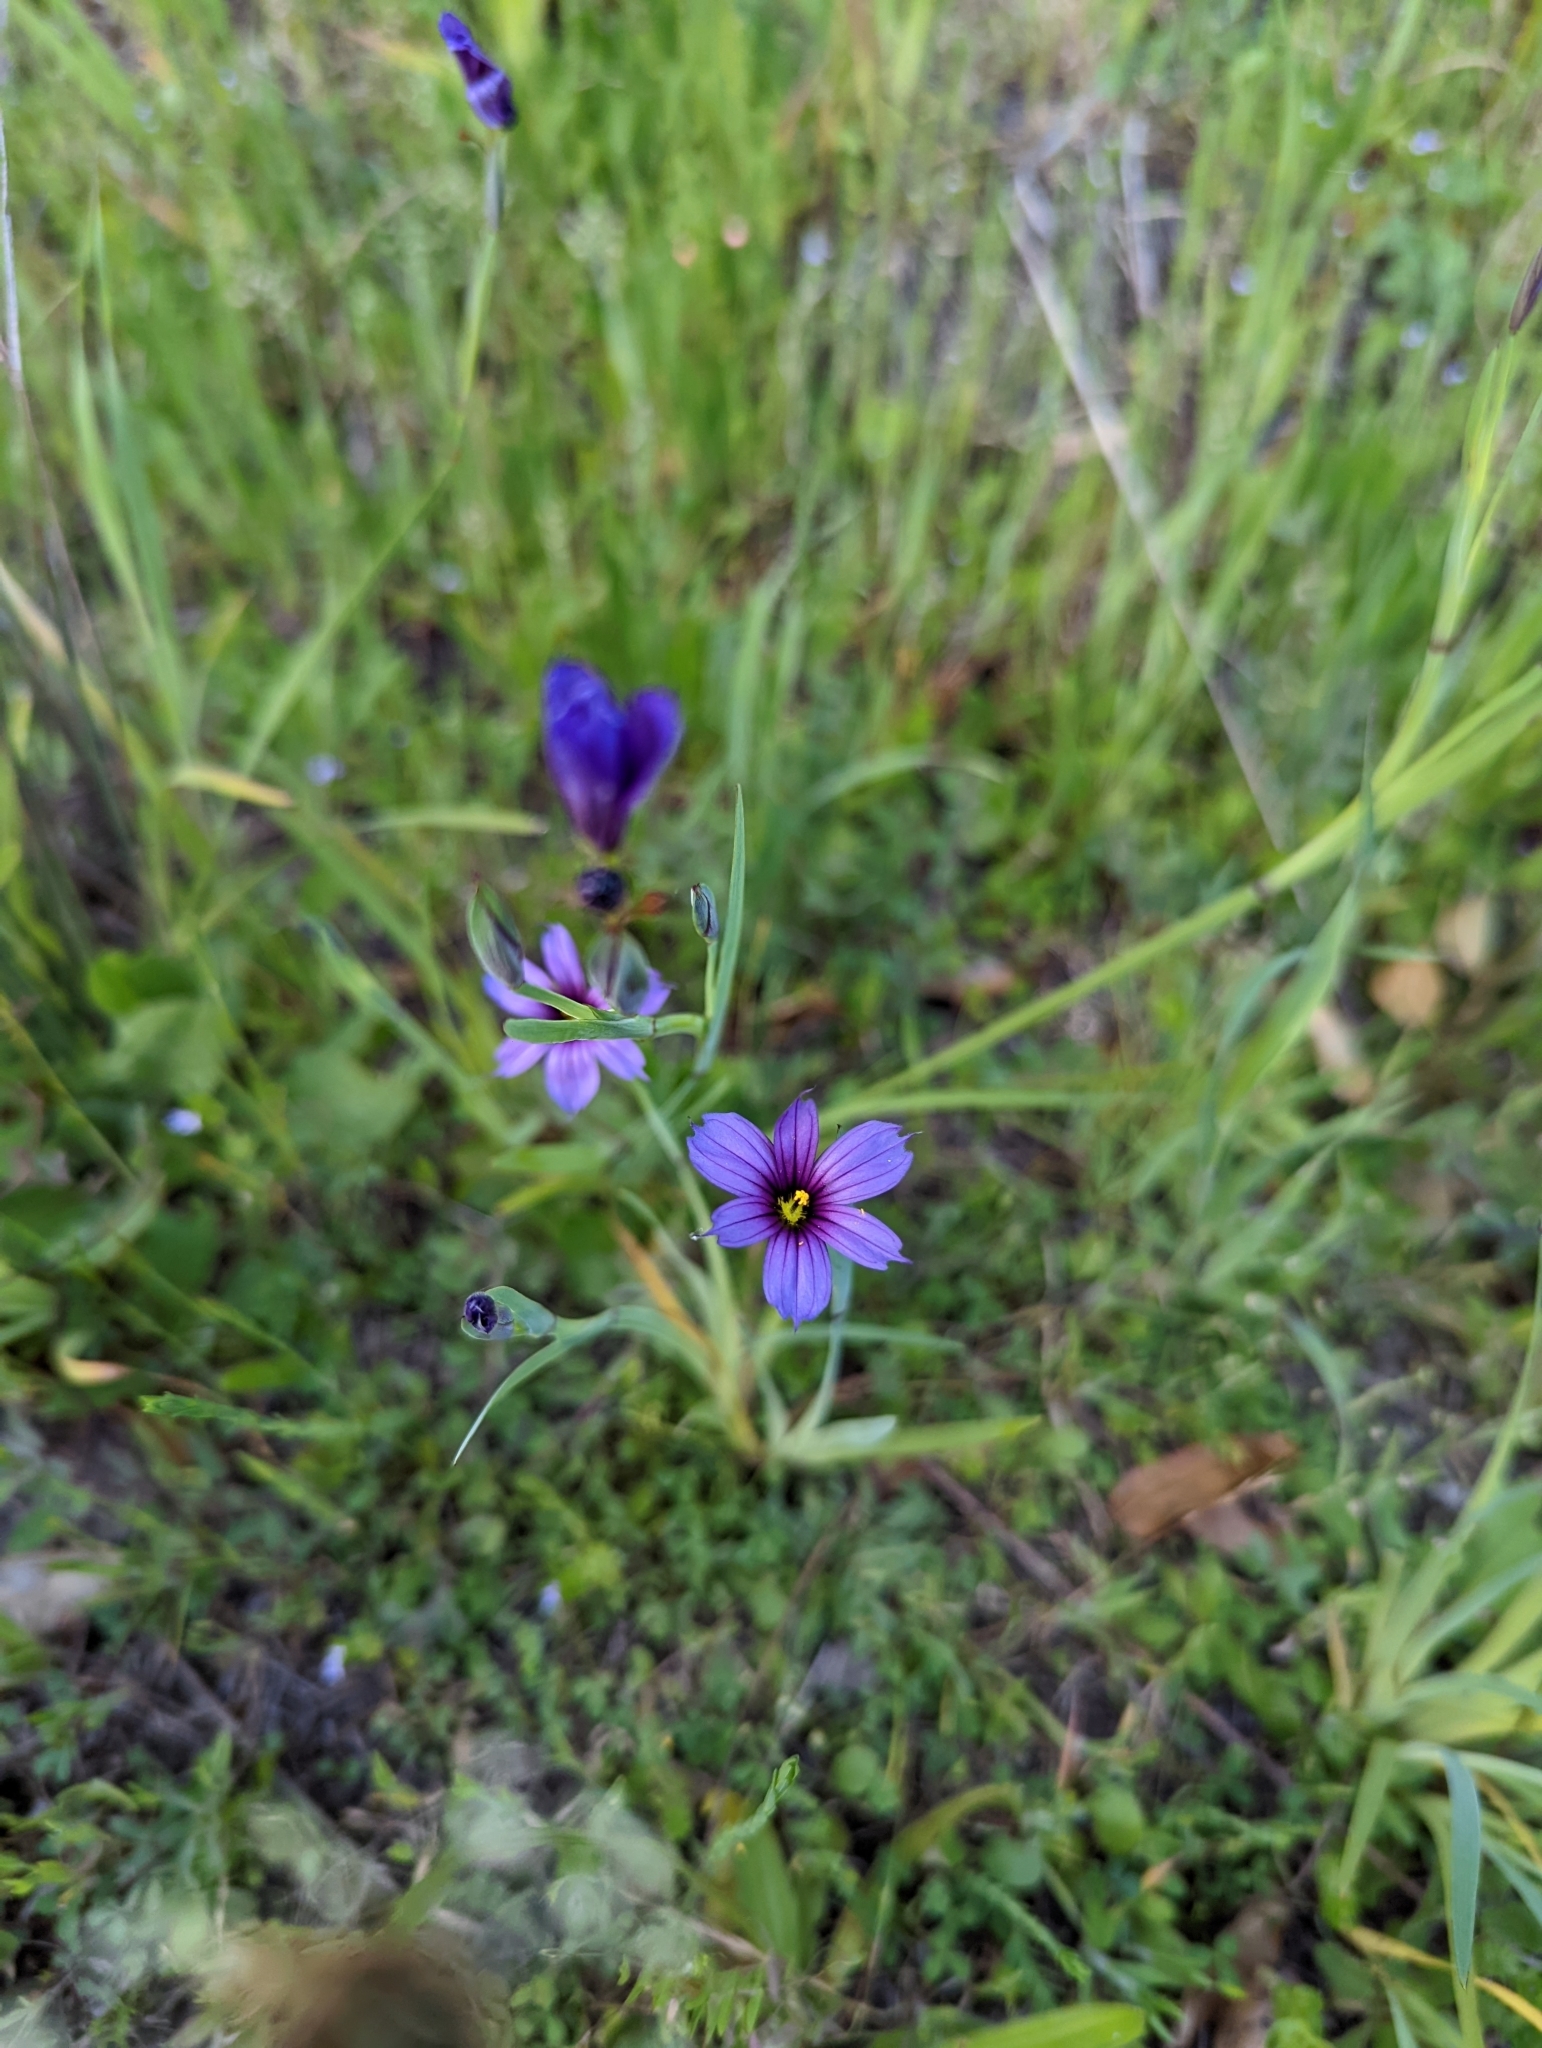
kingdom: Plantae
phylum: Tracheophyta
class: Liliopsida
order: Asparagales
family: Iridaceae
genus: Sisyrinchium
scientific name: Sisyrinchium bellum
